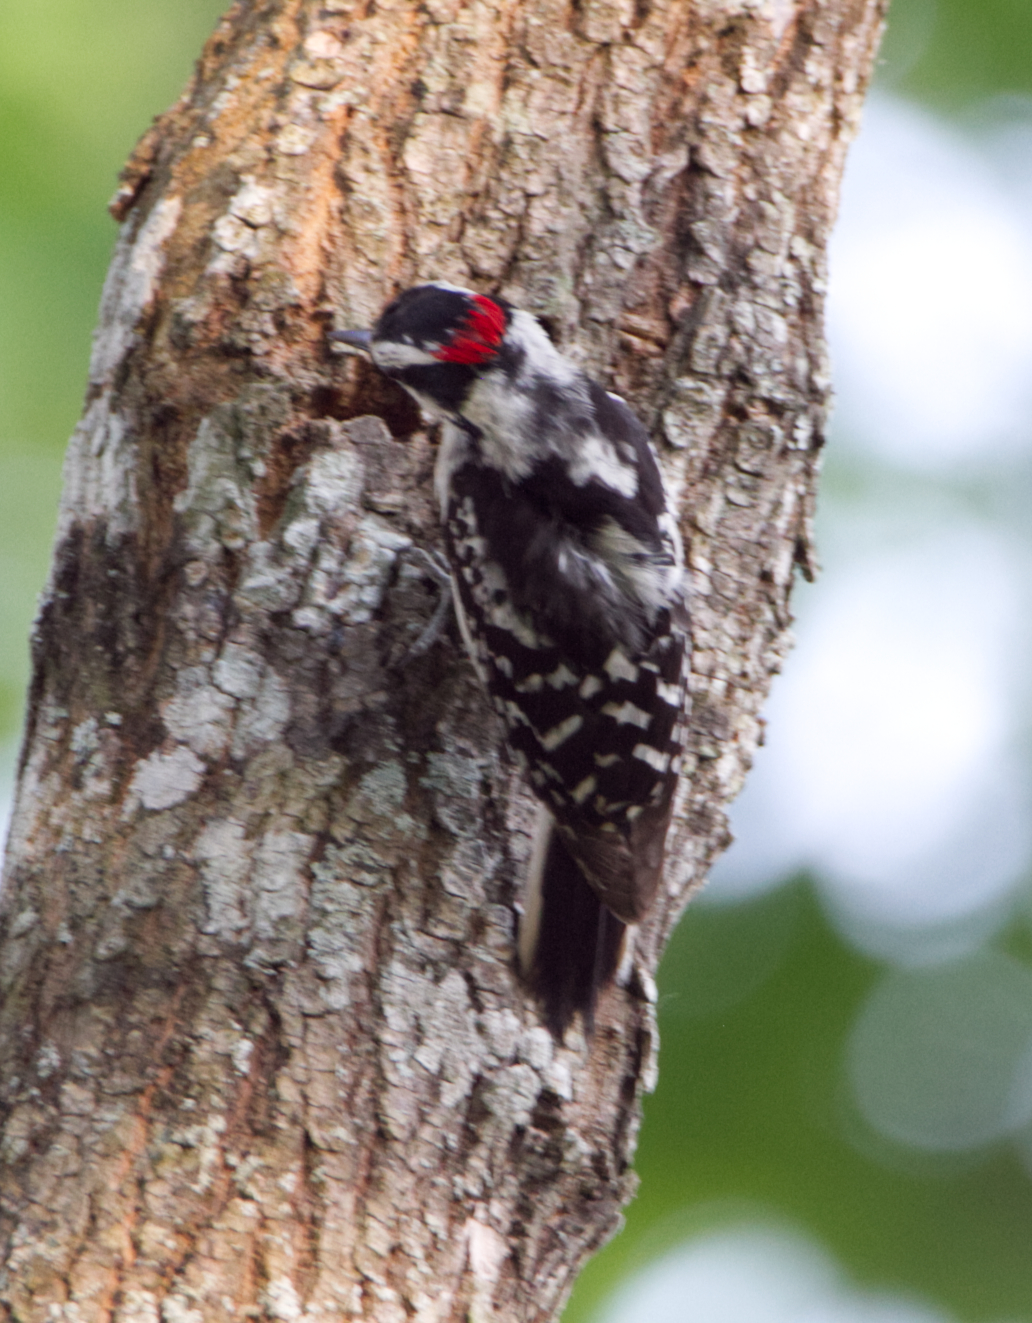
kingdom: Animalia
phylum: Chordata
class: Aves
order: Piciformes
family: Picidae
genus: Dryobates
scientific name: Dryobates pubescens
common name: Downy woodpecker
